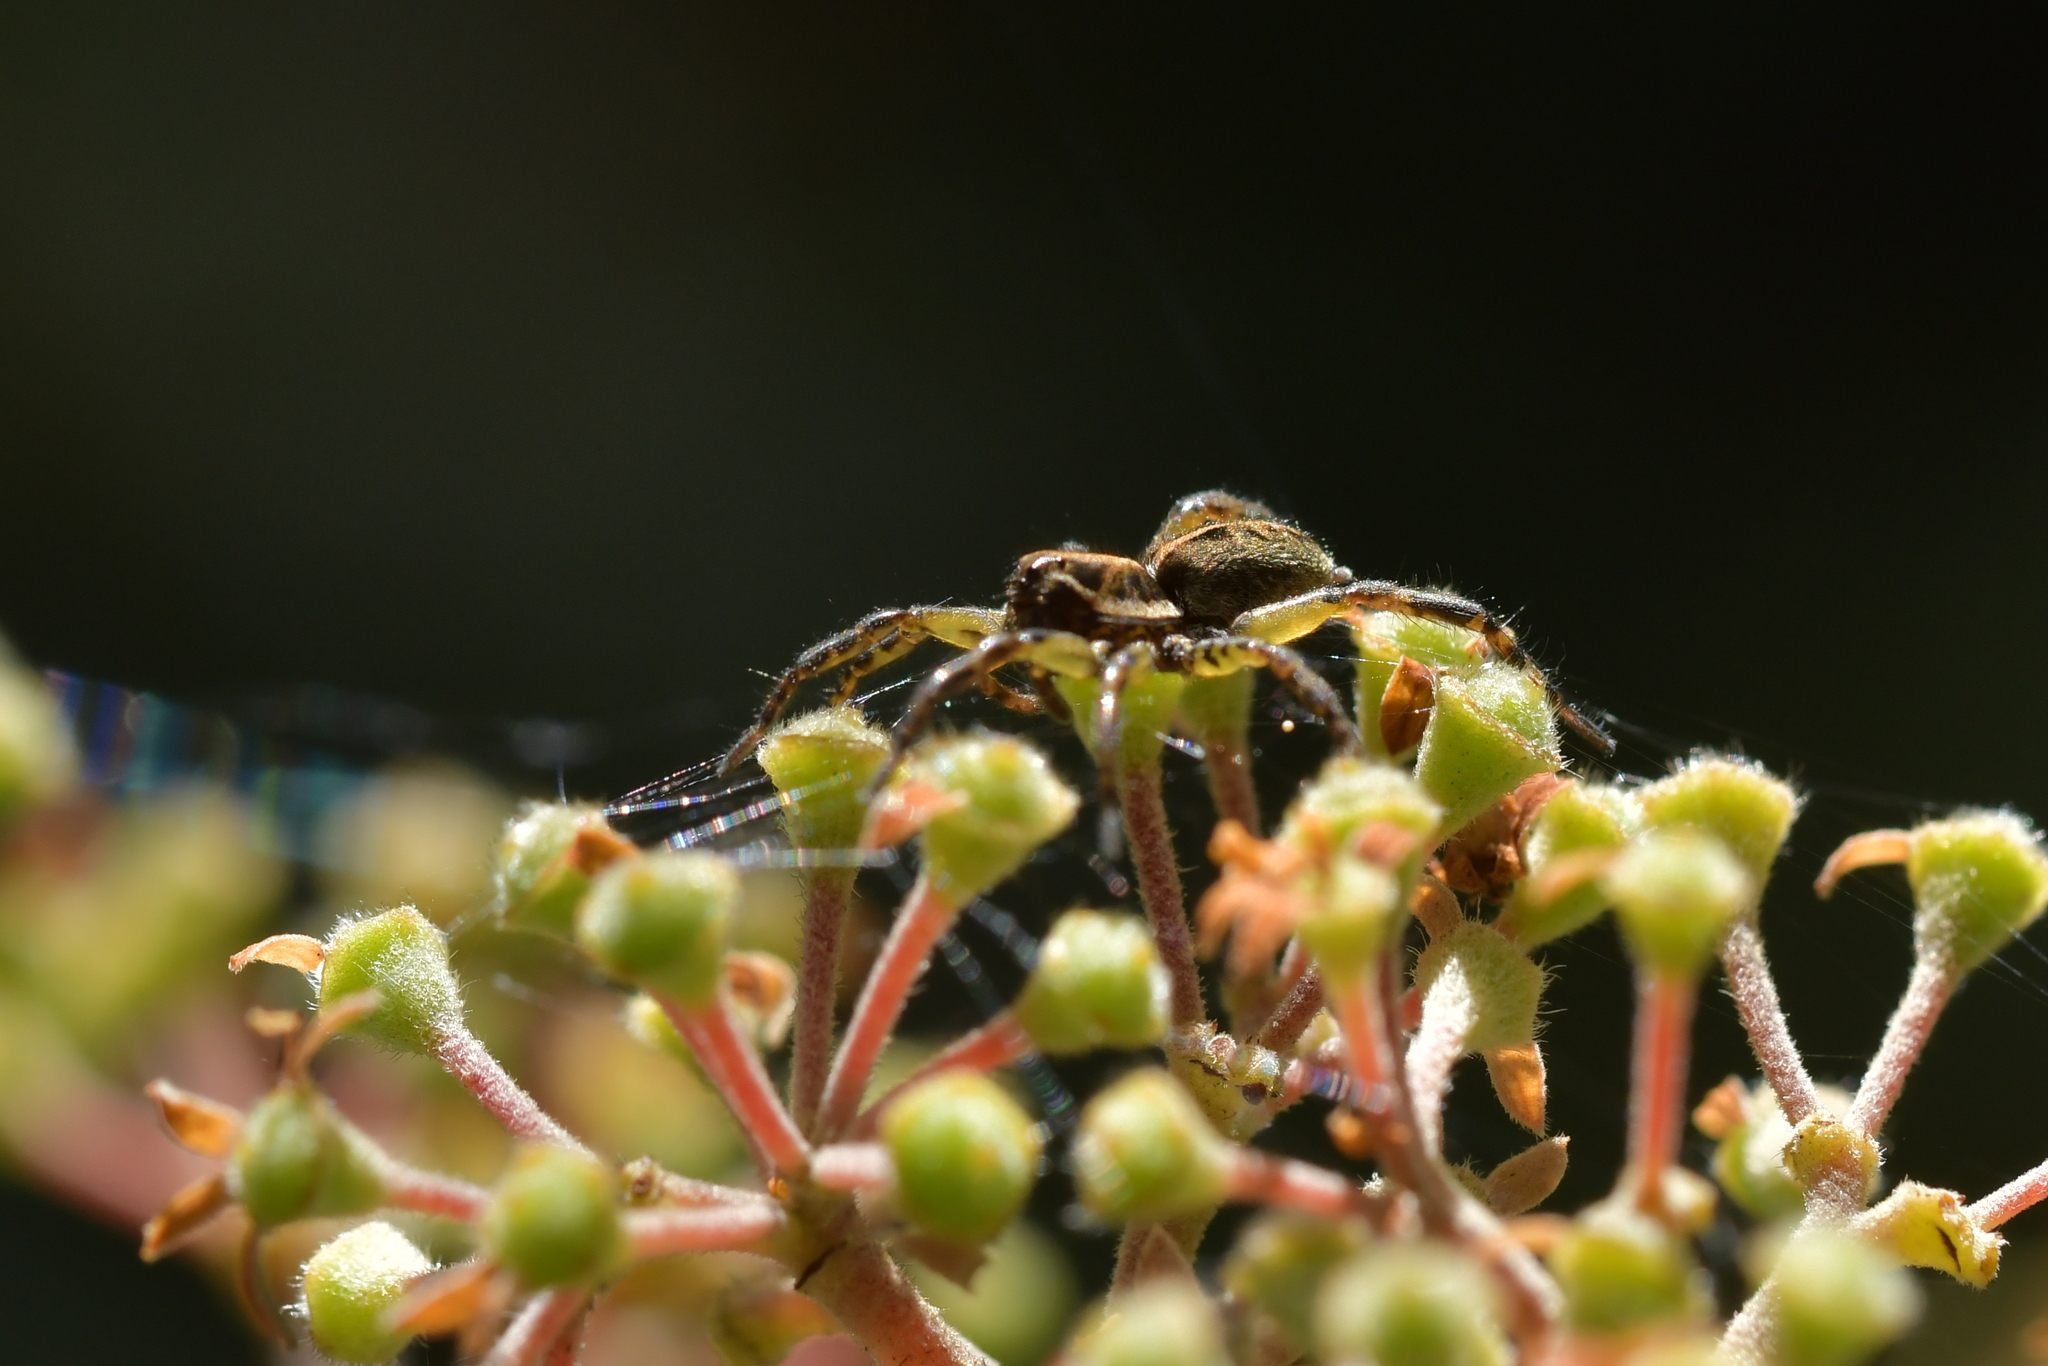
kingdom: Animalia
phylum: Arthropoda
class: Arachnida
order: Araneae
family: Lycosidae
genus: Anoteropsis
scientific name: Anoteropsis hilaris
